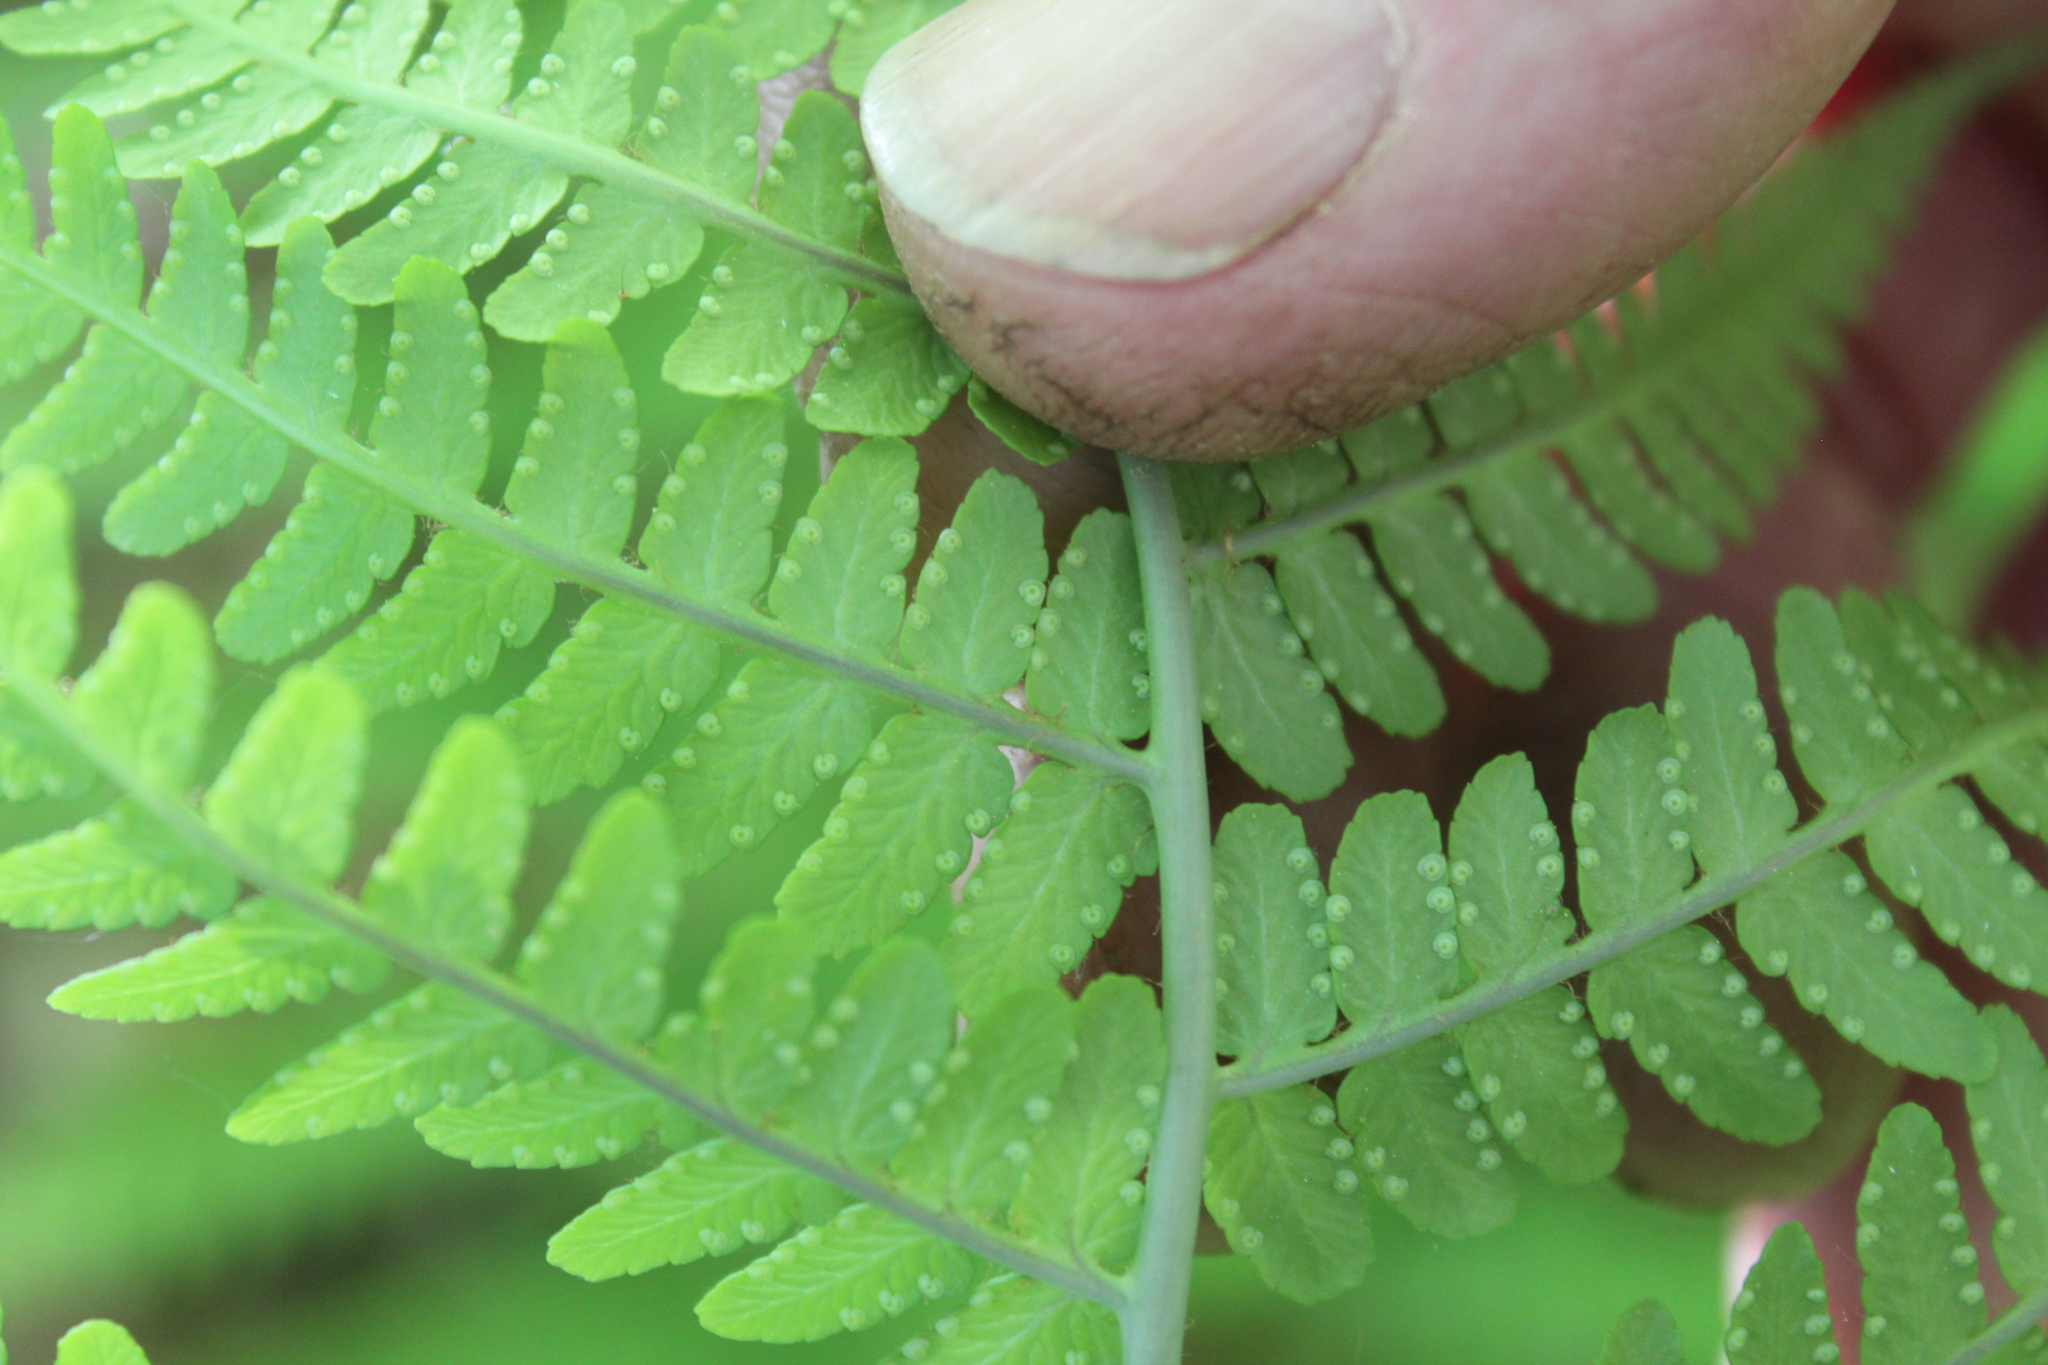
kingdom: Plantae
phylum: Tracheophyta
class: Polypodiopsida
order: Polypodiales
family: Dryopteridaceae
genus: Dryopteris
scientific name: Dryopteris marginalis
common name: Marginal wood fern
